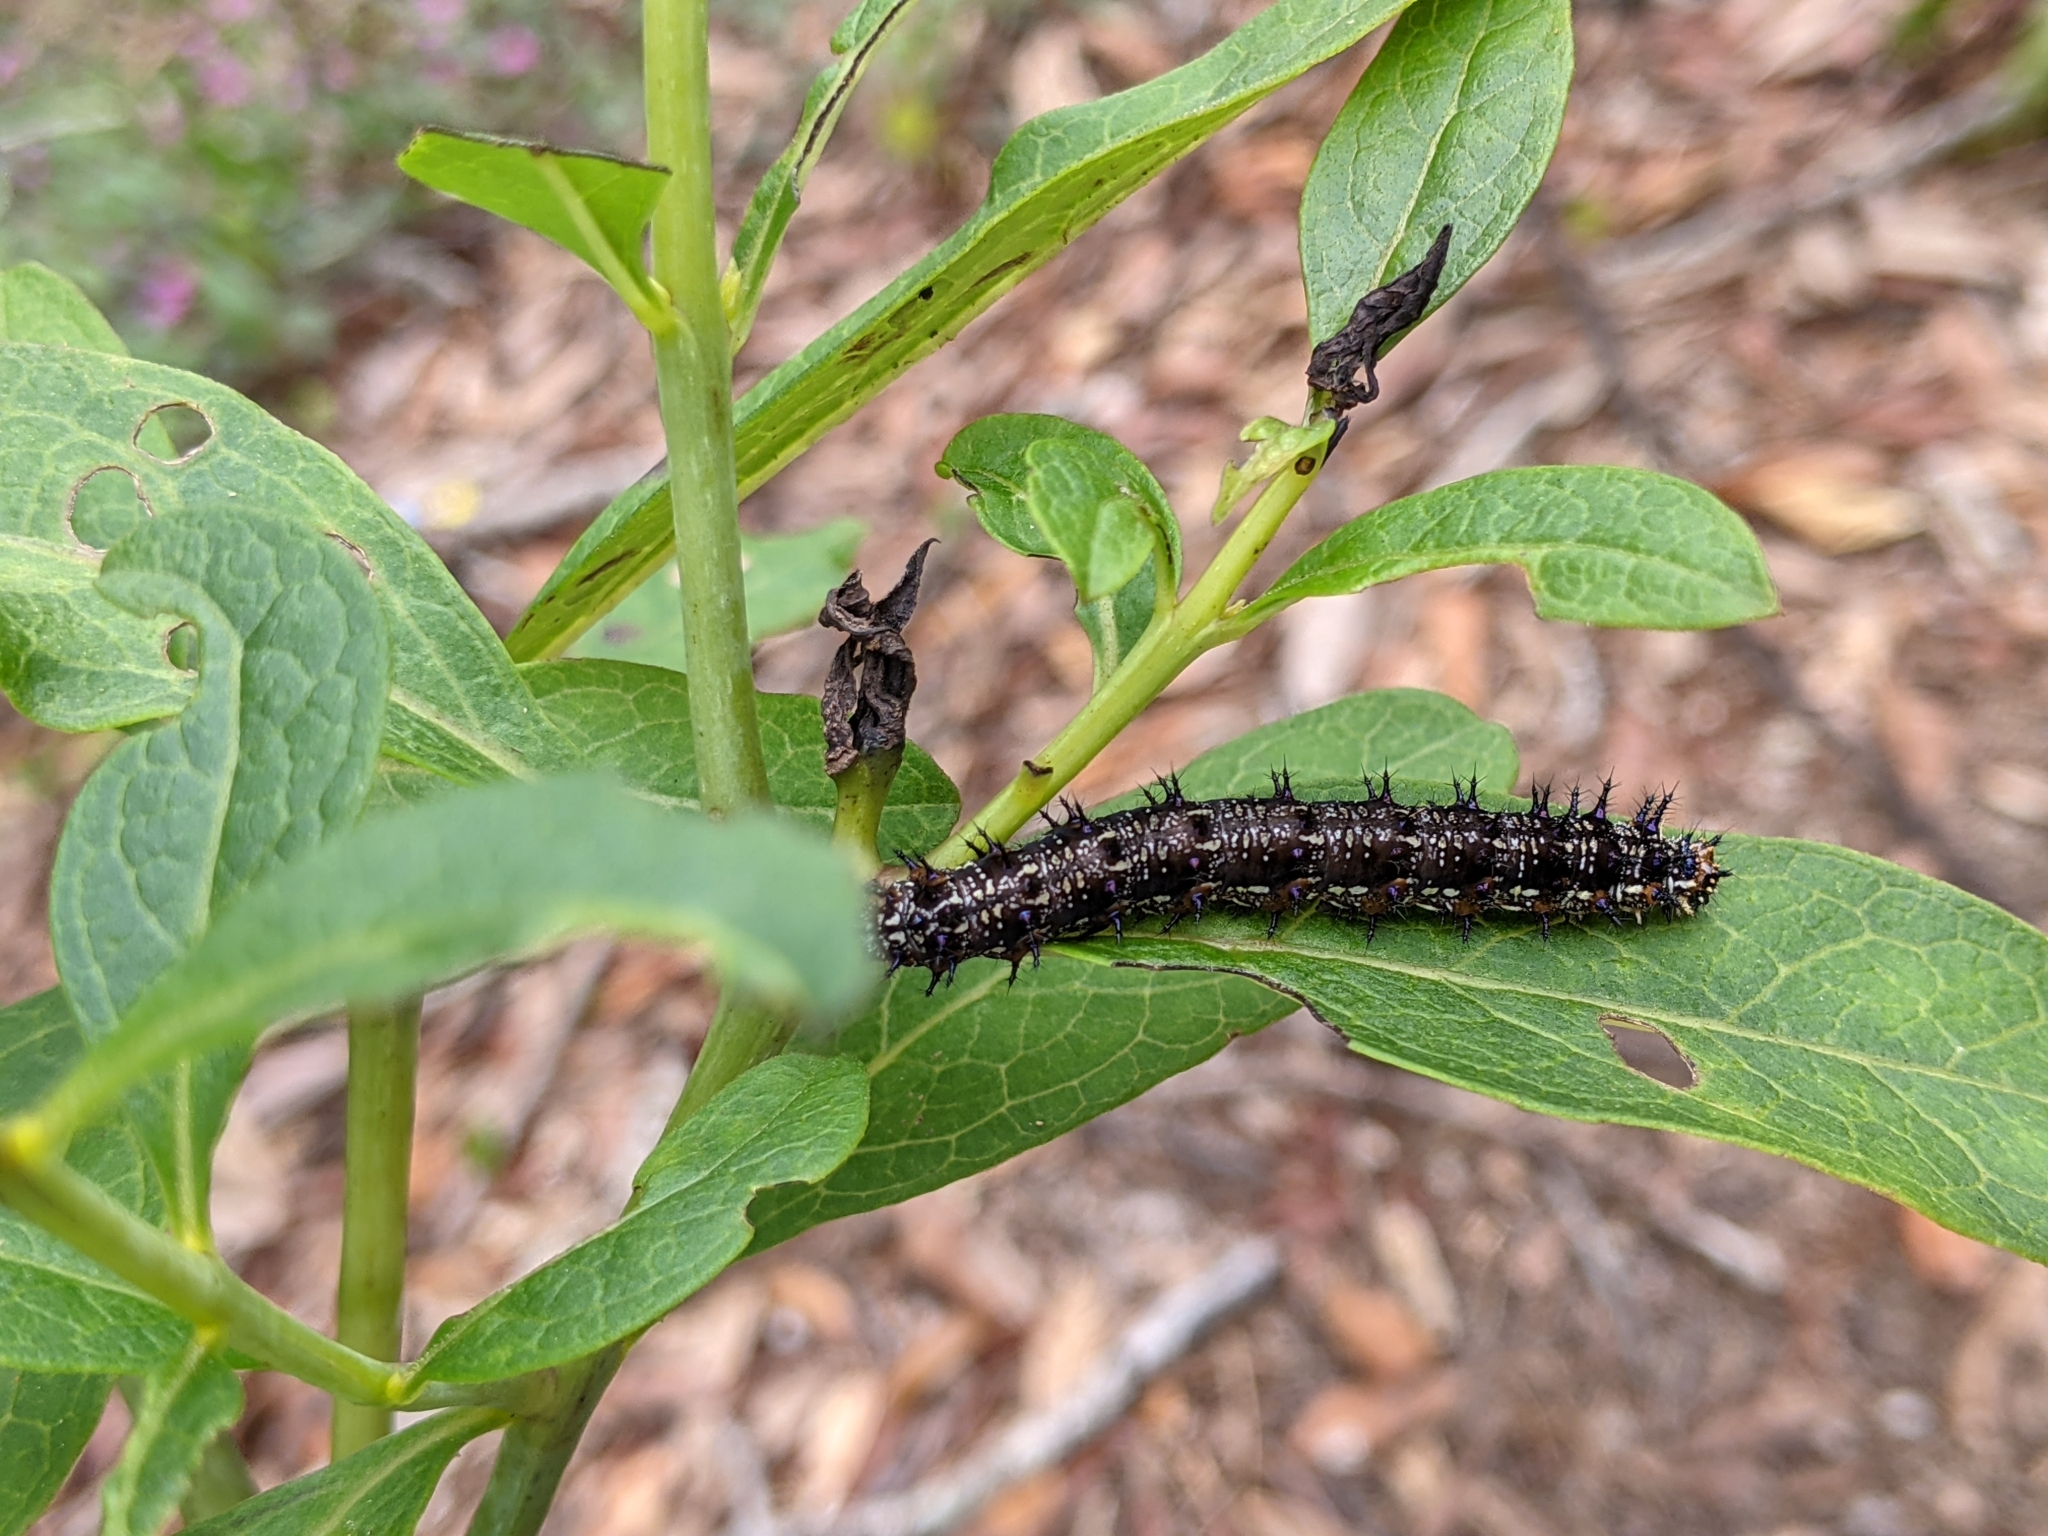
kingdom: Animalia
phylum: Arthropoda
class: Insecta
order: Lepidoptera
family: Nymphalidae
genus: Junonia
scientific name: Junonia coenia
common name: Common buckeye
